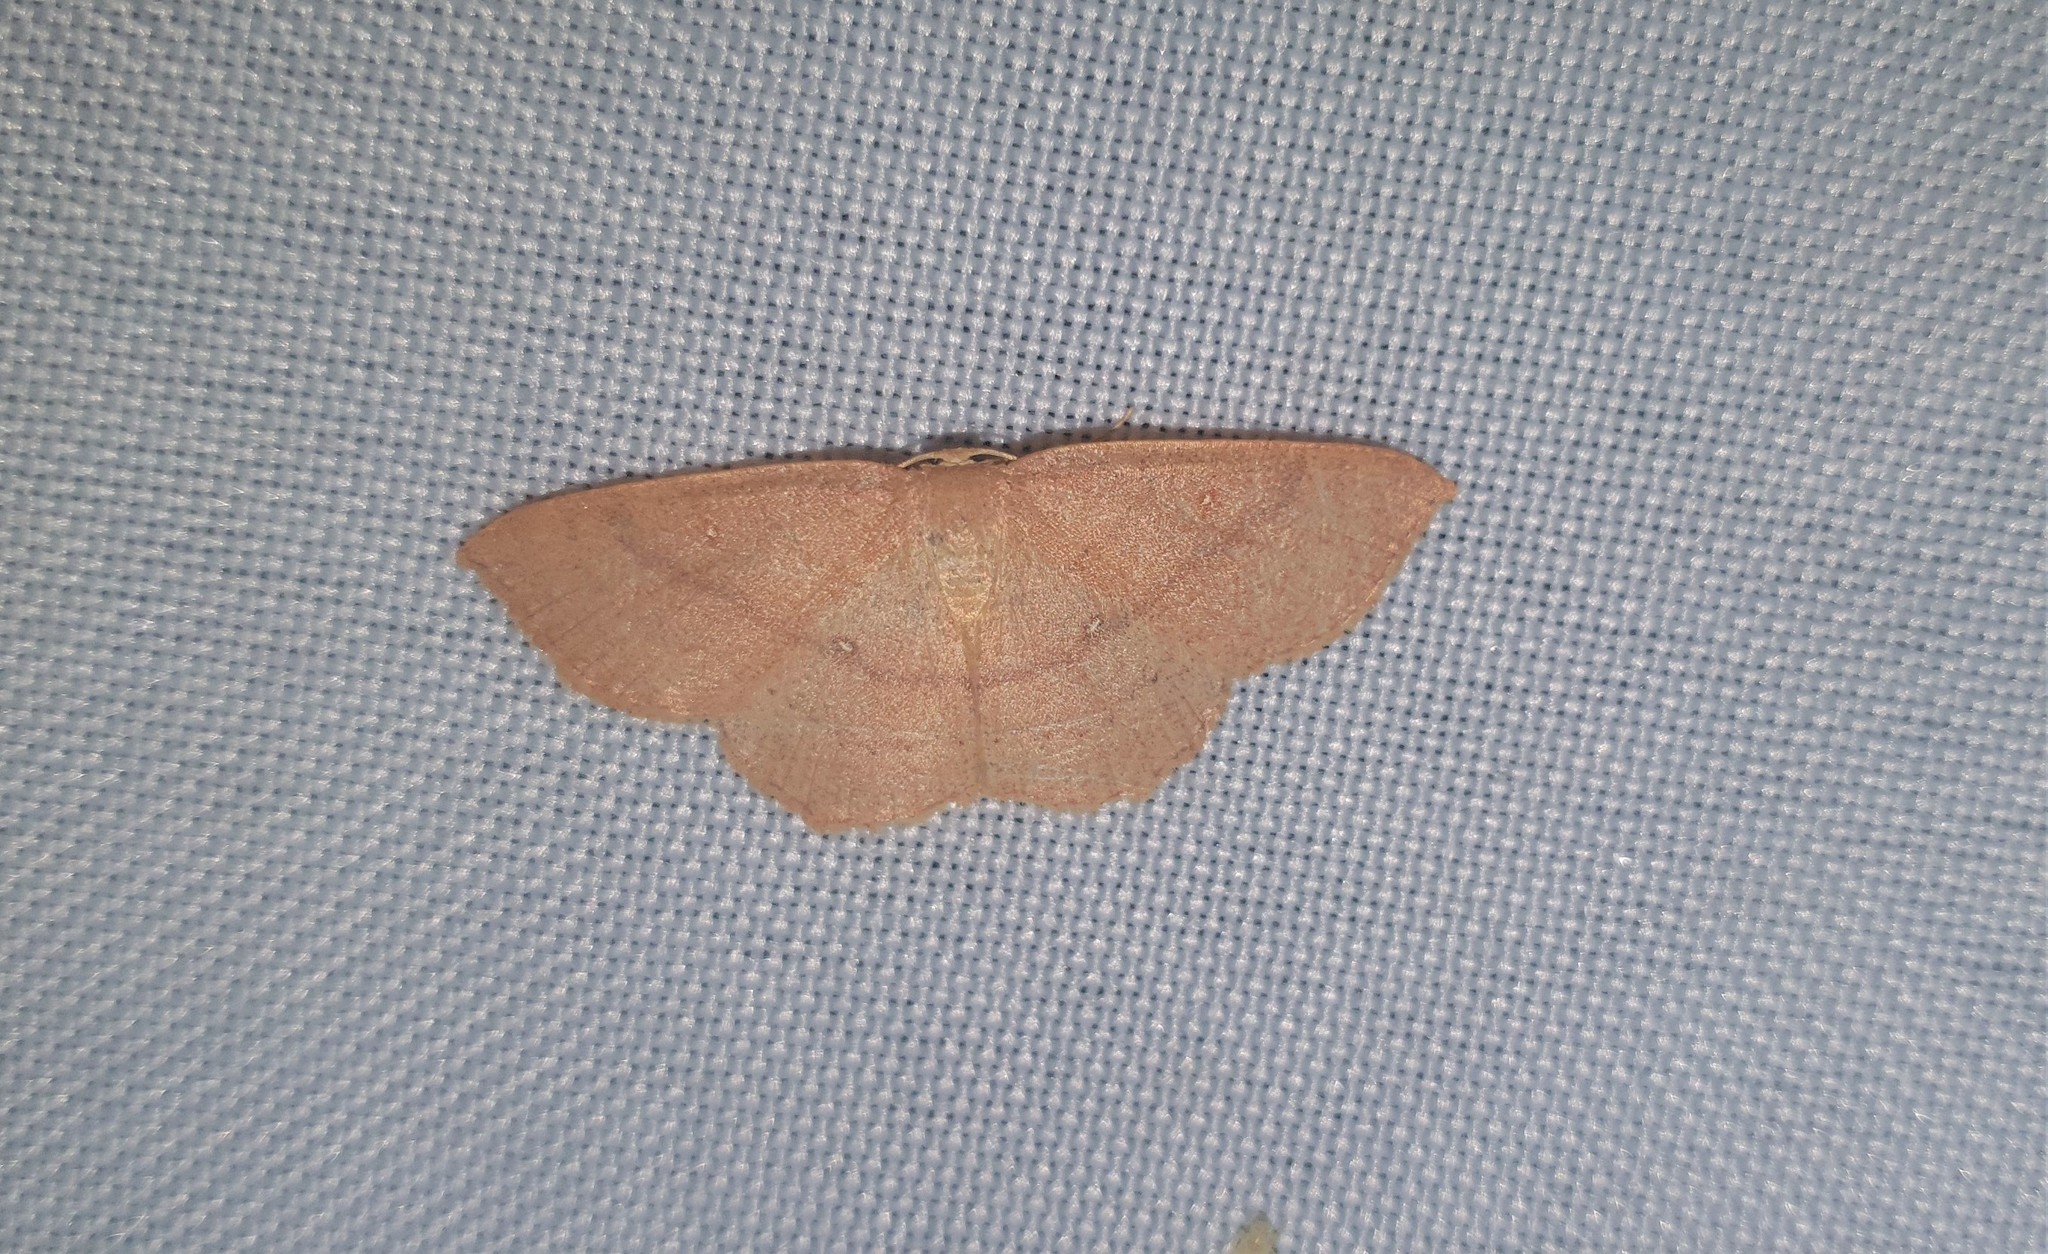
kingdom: Animalia
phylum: Arthropoda
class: Insecta
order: Lepidoptera
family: Geometridae
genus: Cyclophora
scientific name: Cyclophora linearia
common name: Clay triple-lines
